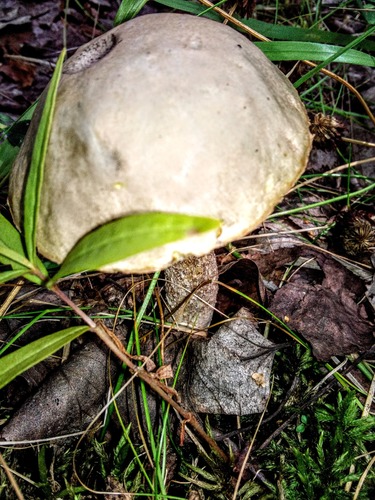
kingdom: Fungi
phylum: Basidiomycota
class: Agaricomycetes
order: Boletales
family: Boletaceae
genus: Leccinum
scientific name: Leccinum holopus
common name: Ghost bolete
